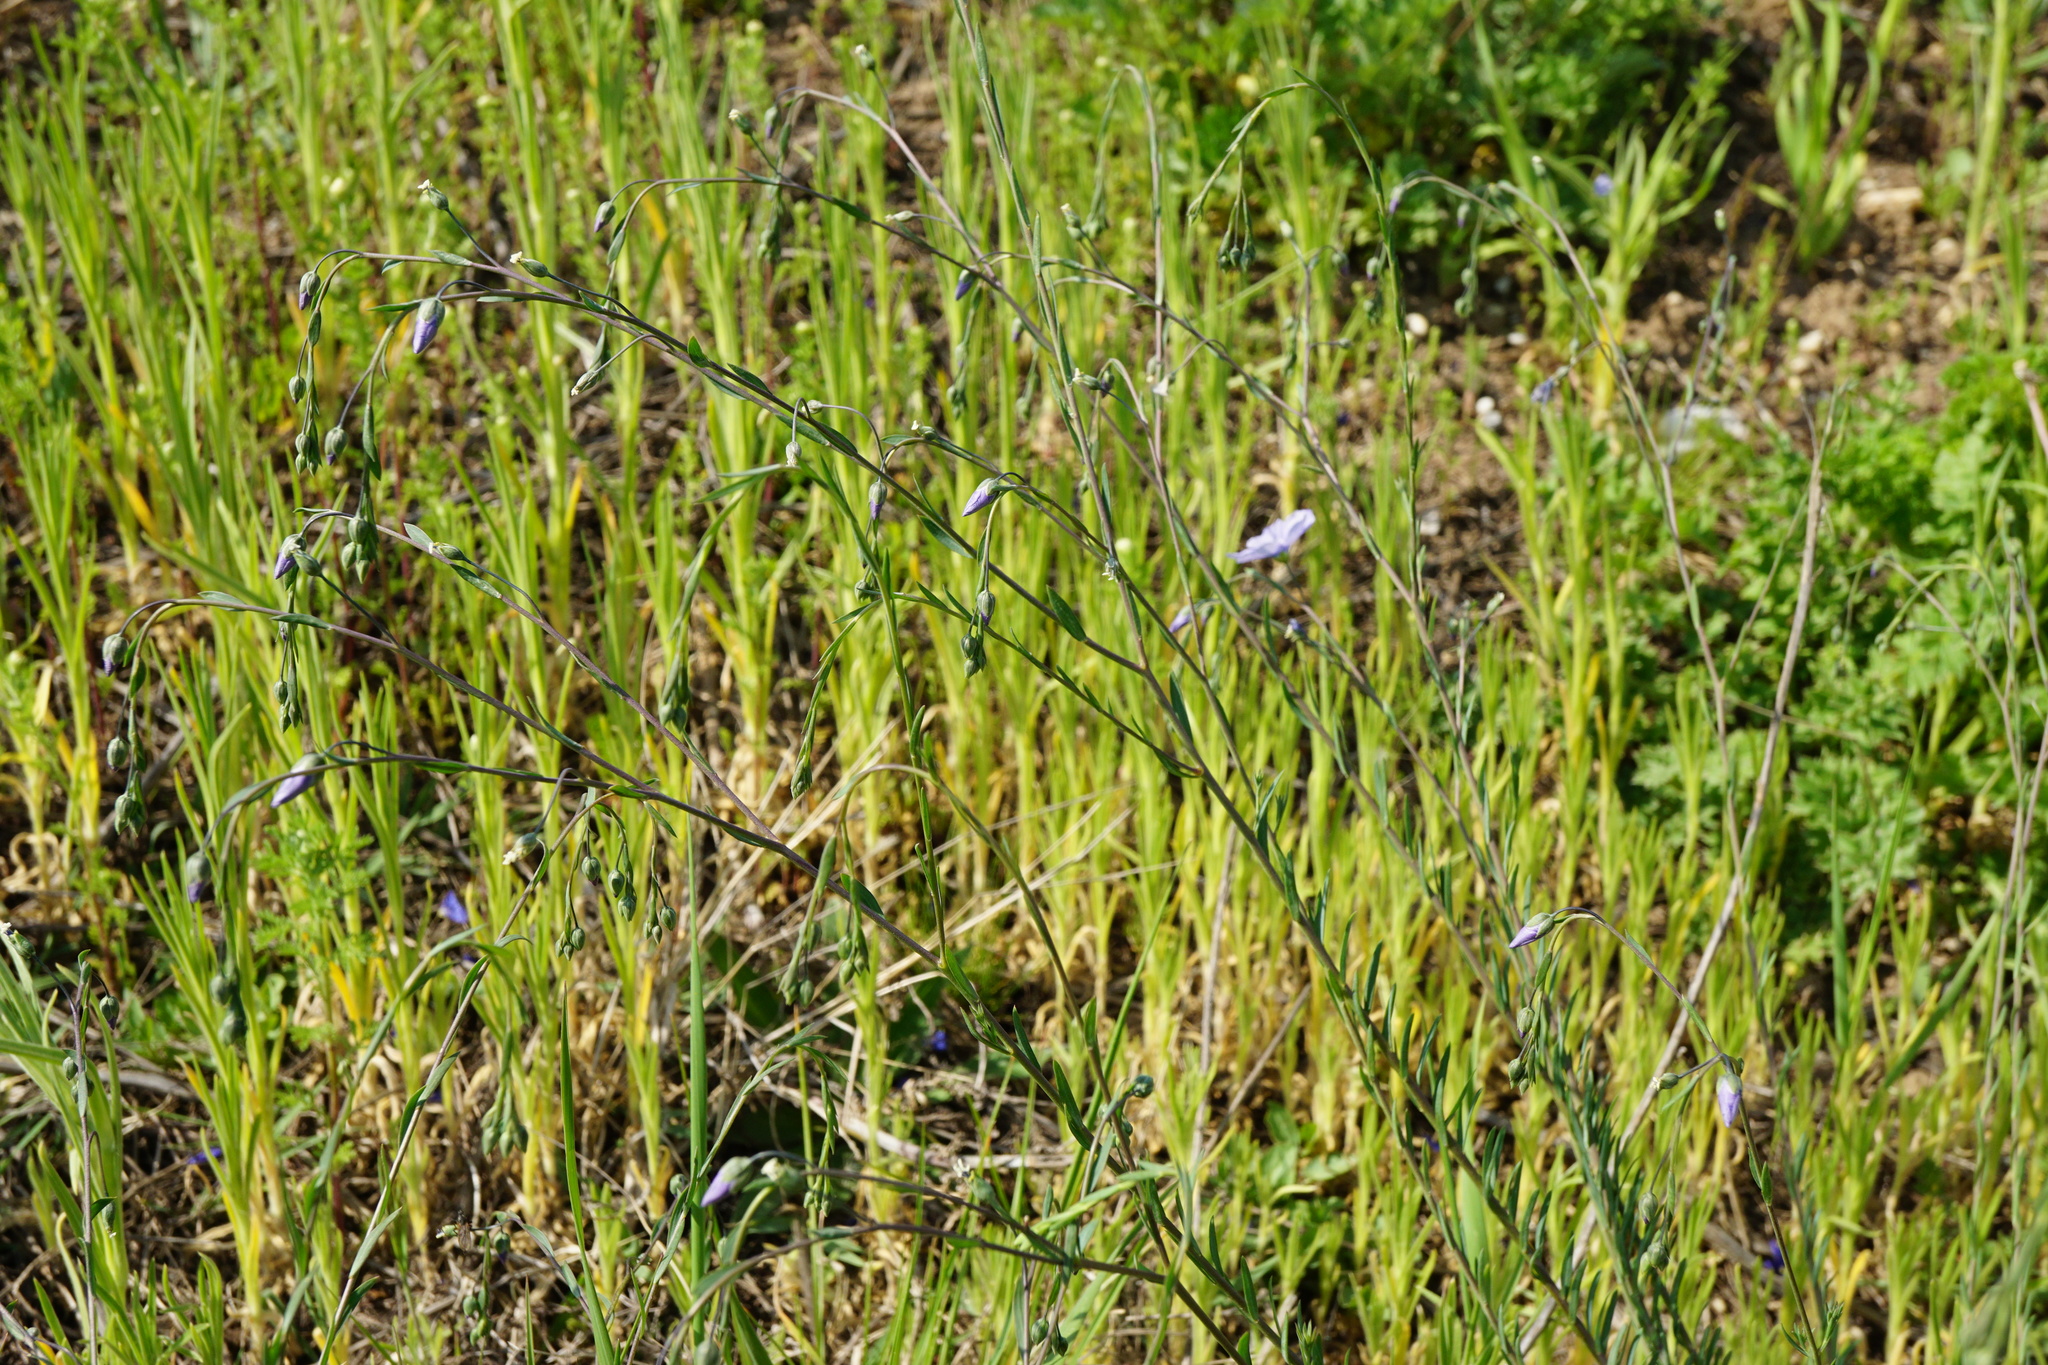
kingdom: Plantae
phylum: Tracheophyta
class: Magnoliopsida
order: Malpighiales
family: Linaceae
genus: Linum
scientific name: Linum austriacum
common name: Austrian flax
